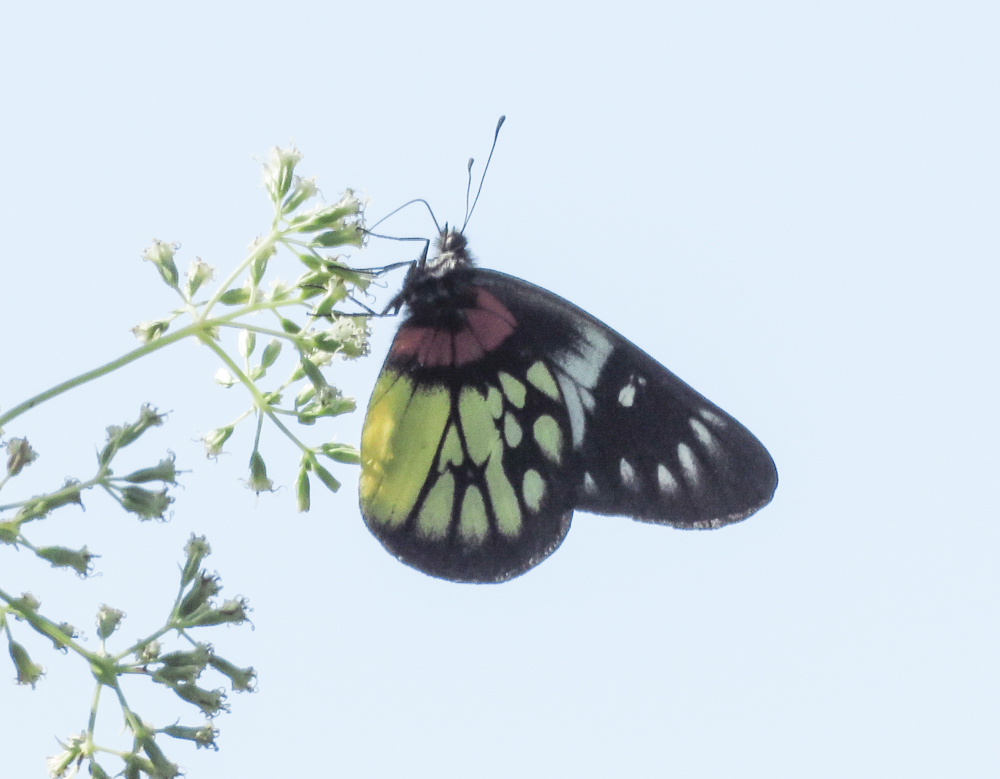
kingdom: Animalia
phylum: Arthropoda
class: Insecta
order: Lepidoptera
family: Pieridae
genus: Delias
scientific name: Delias pasithoe
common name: Red-base jezebel
